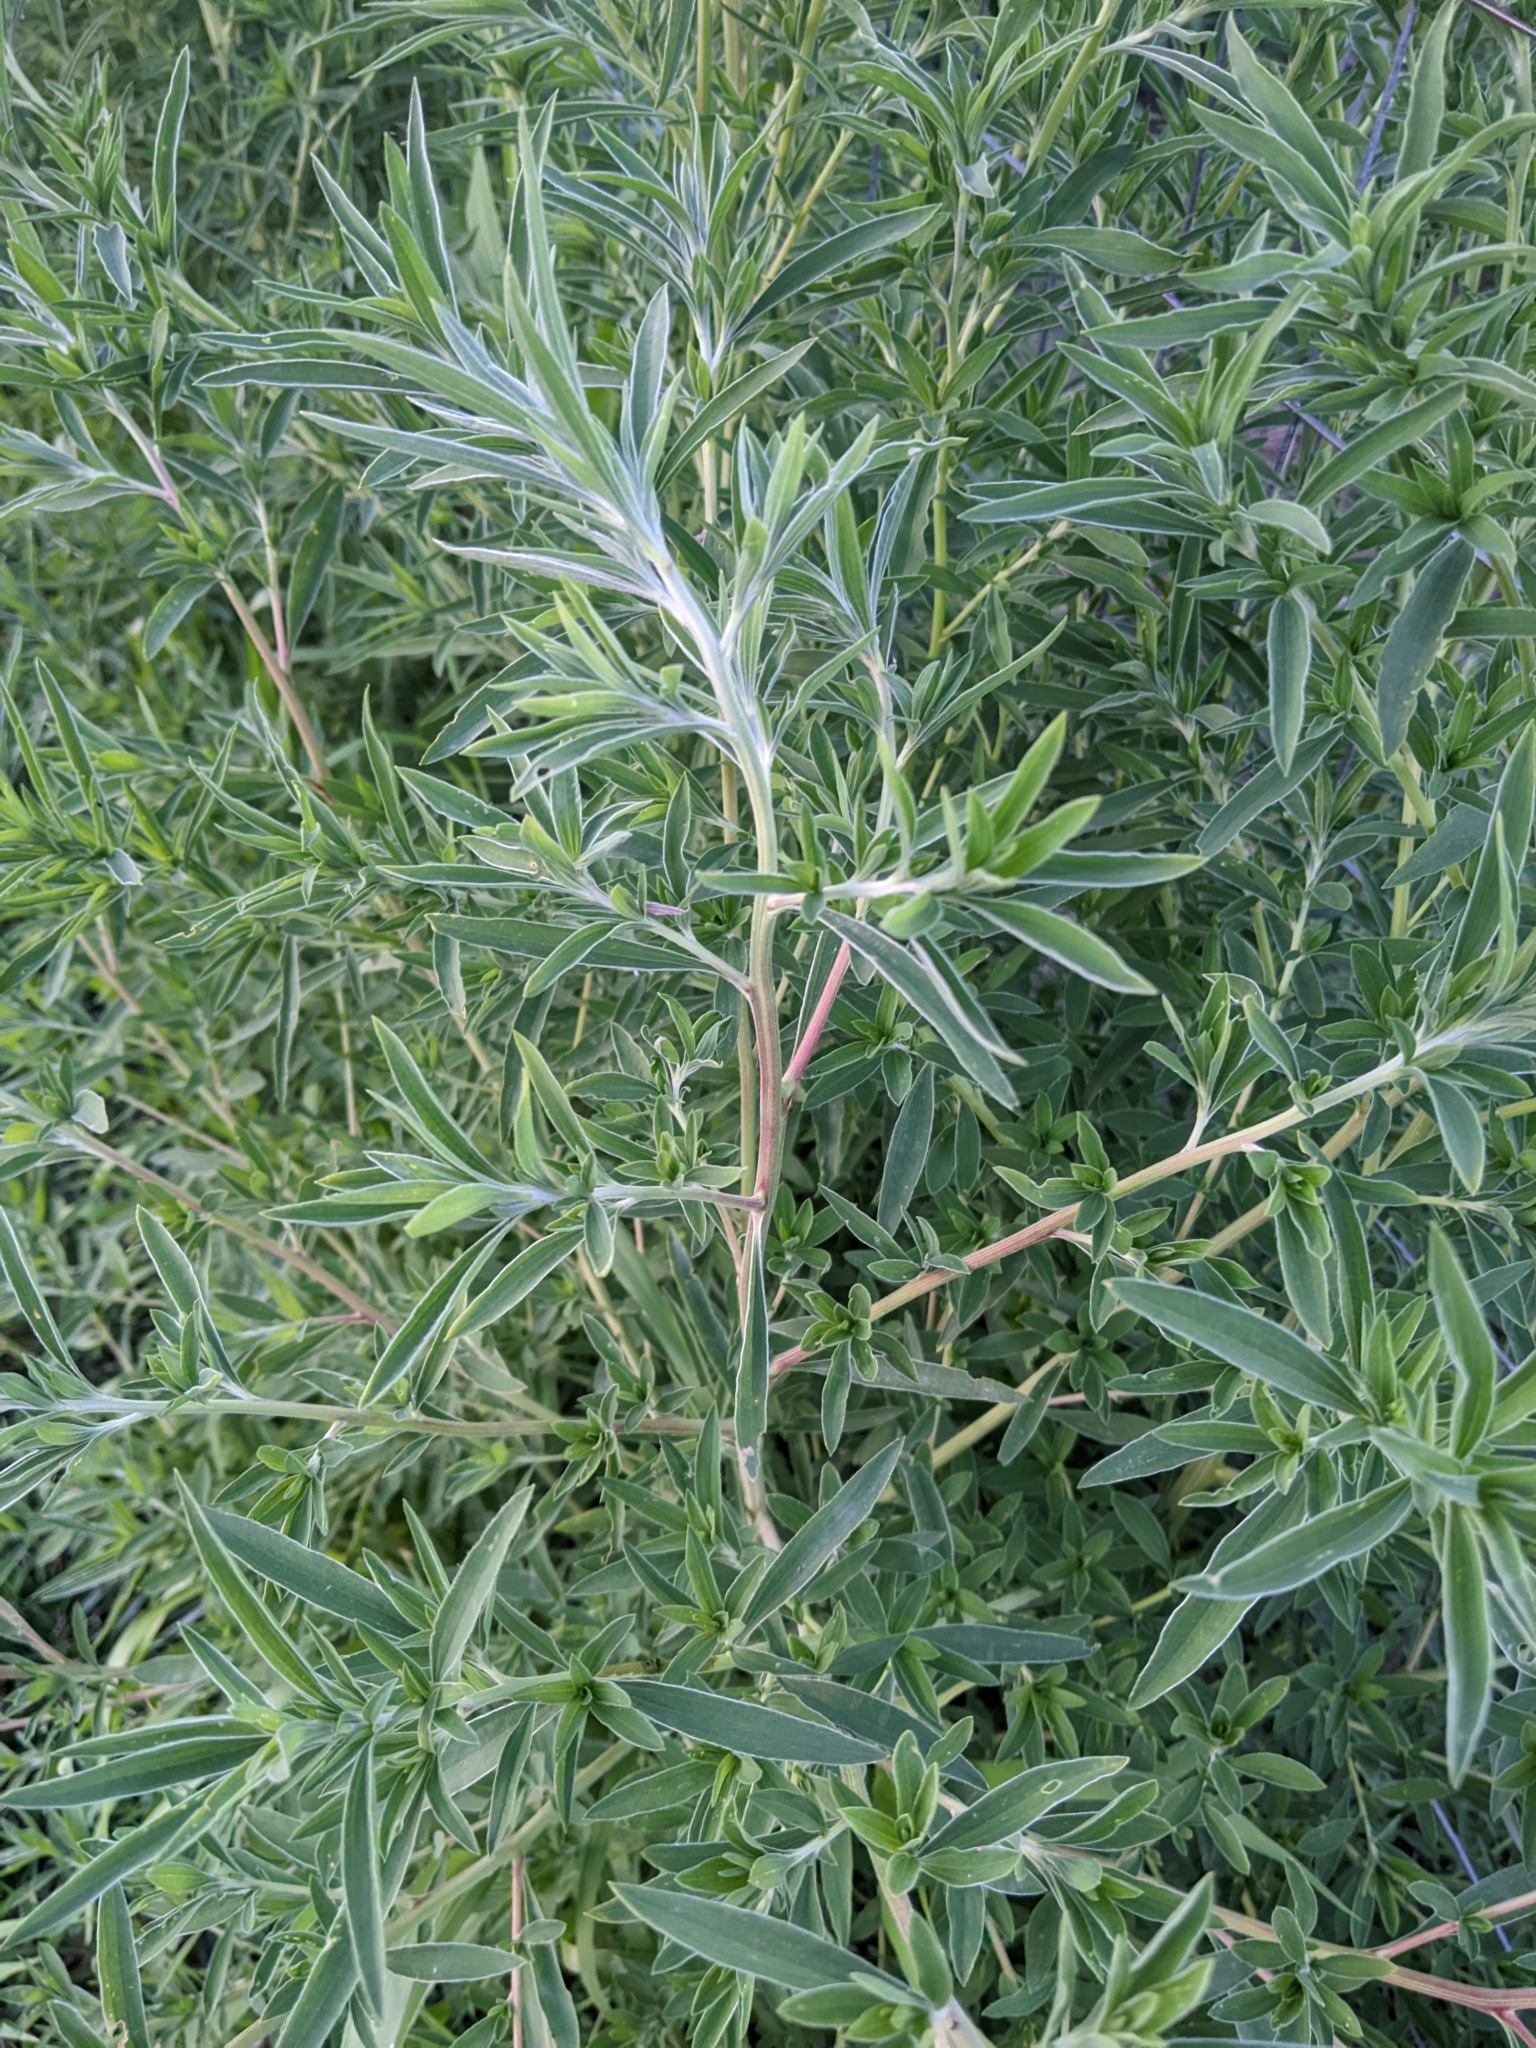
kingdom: Plantae
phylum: Tracheophyta
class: Magnoliopsida
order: Caryophyllales
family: Amaranthaceae
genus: Bassia
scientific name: Bassia scoparia
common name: Belvedere
